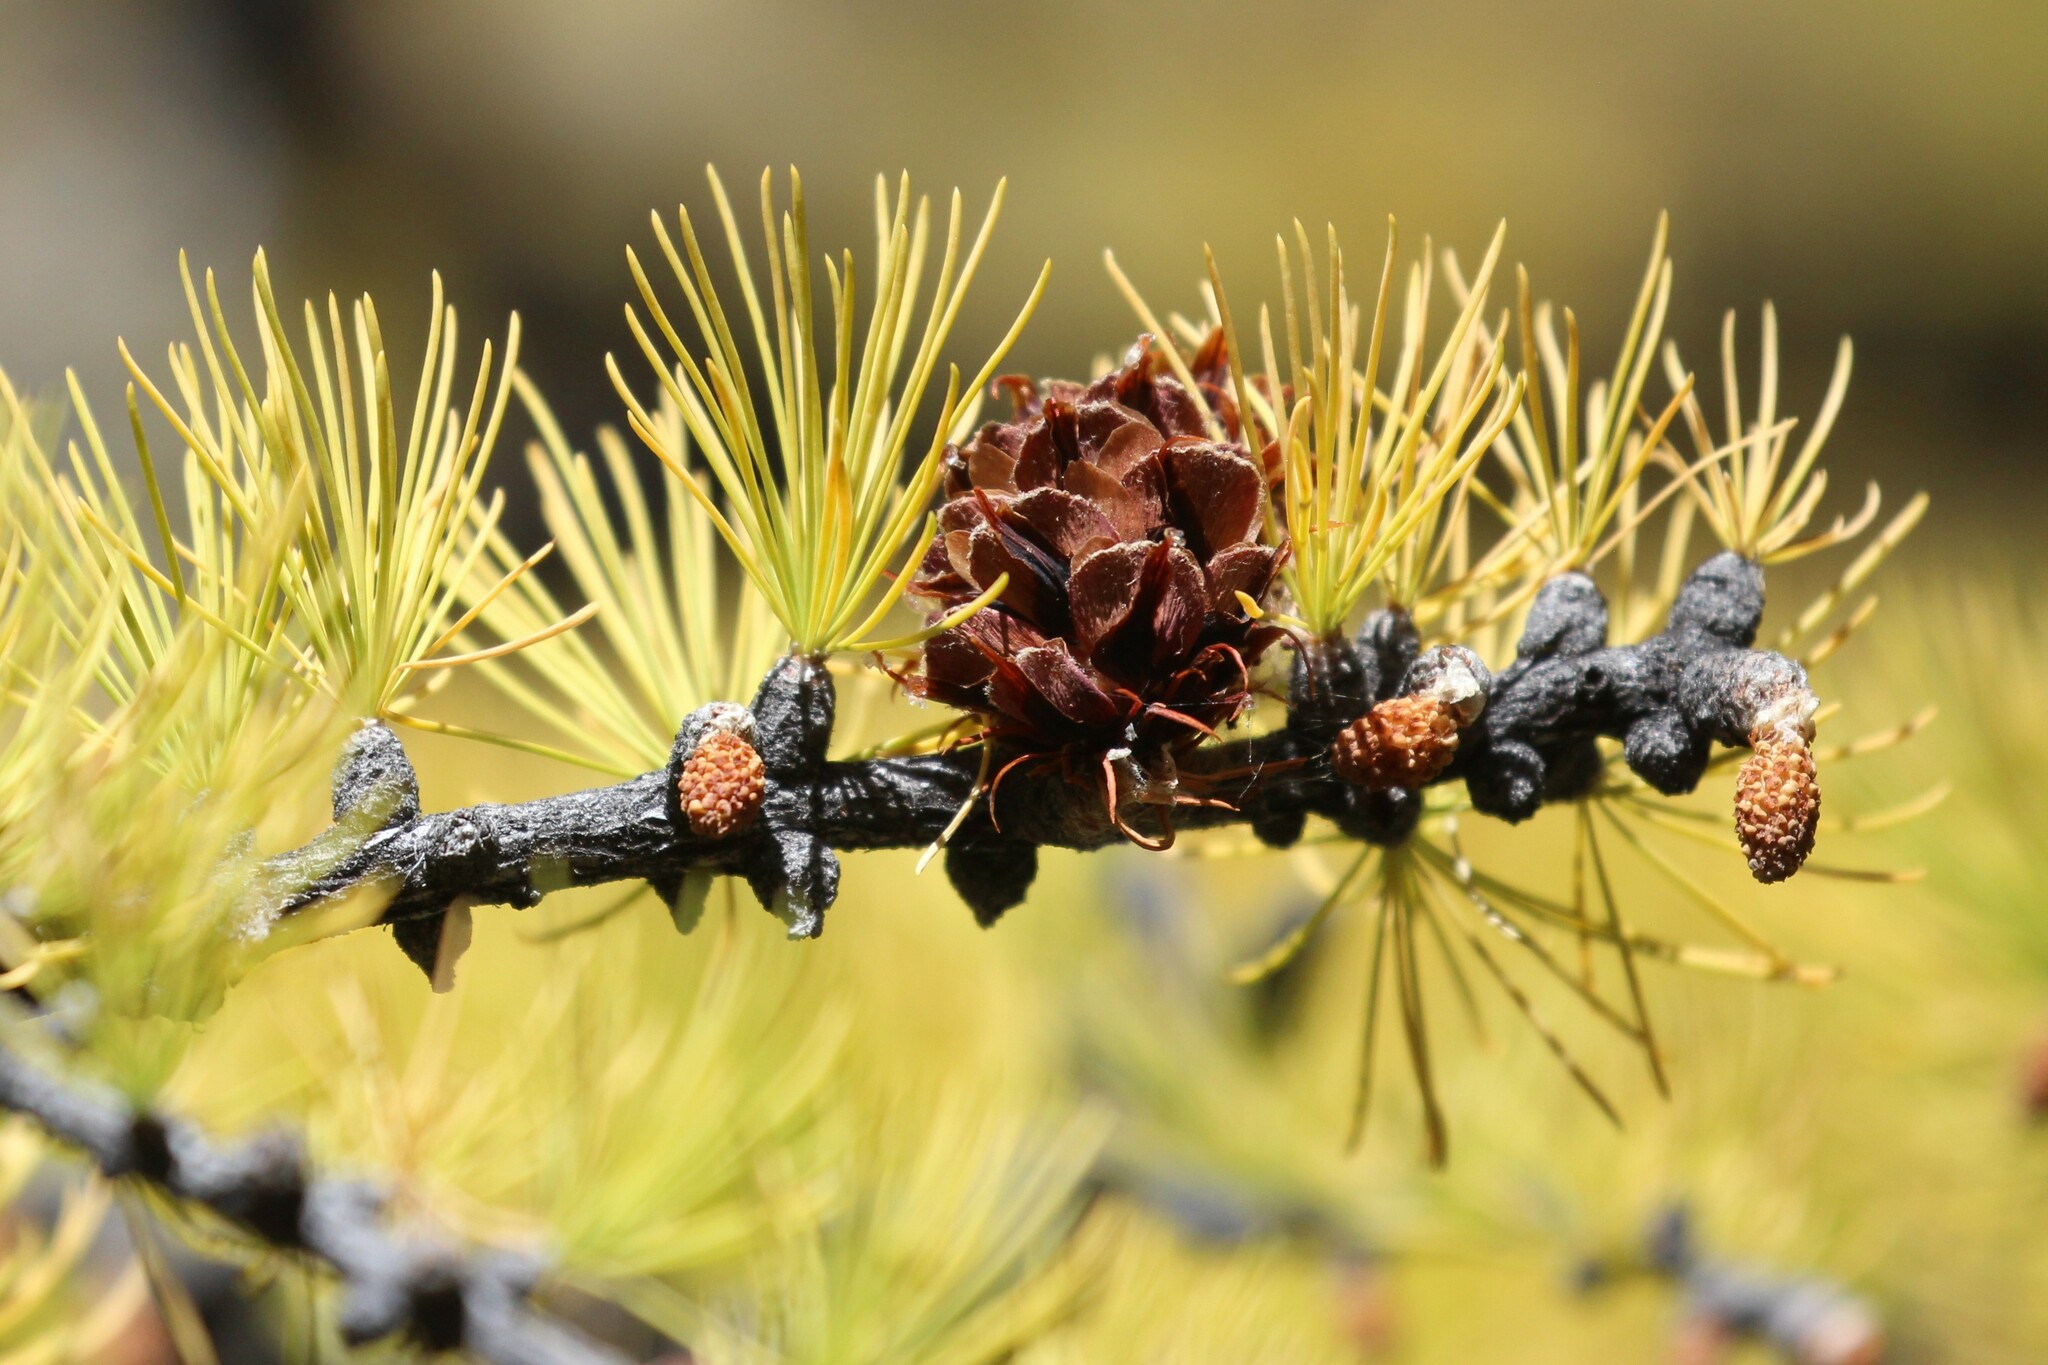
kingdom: Plantae
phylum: Tracheophyta
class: Pinopsida
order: Pinales
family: Pinaceae
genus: Larix
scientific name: Larix lyallii
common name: Alpine larch
